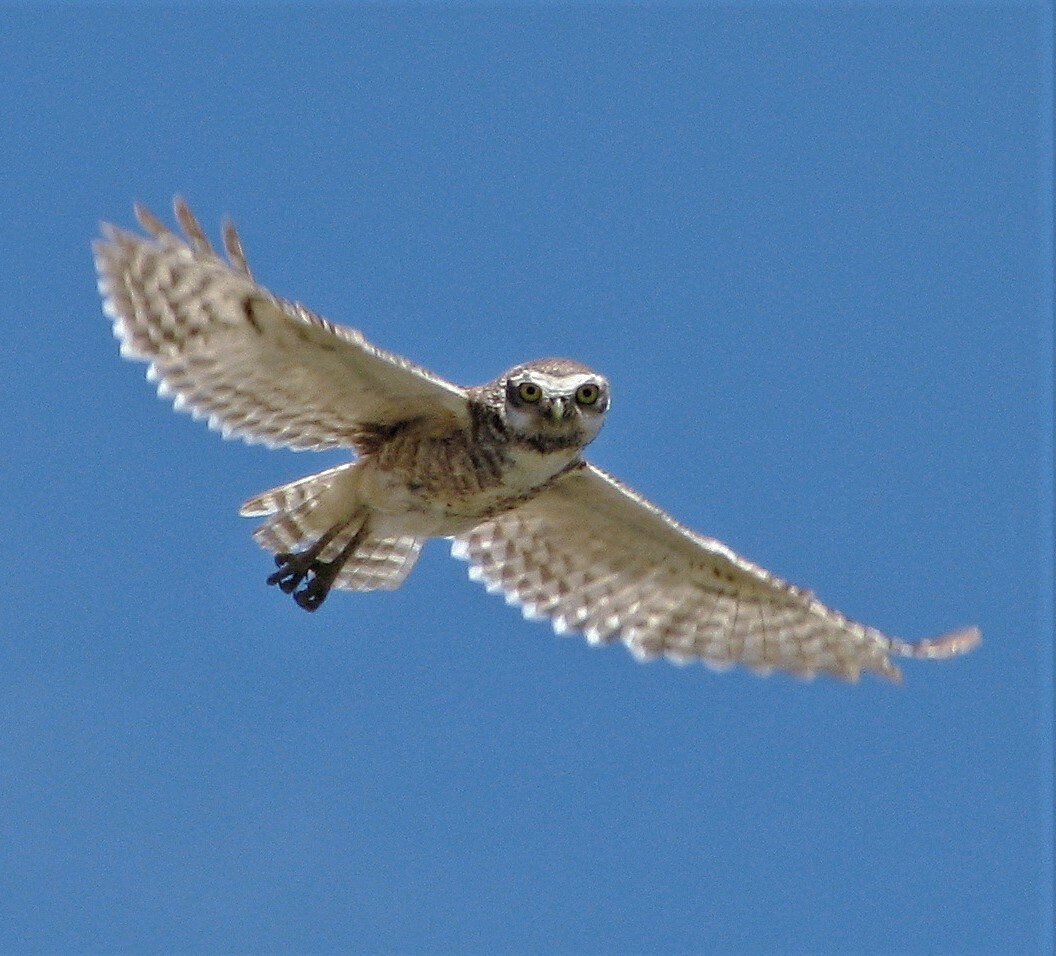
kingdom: Animalia
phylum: Chordata
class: Aves
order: Strigiformes
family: Strigidae
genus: Athene
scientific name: Athene cunicularia
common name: Burrowing owl
